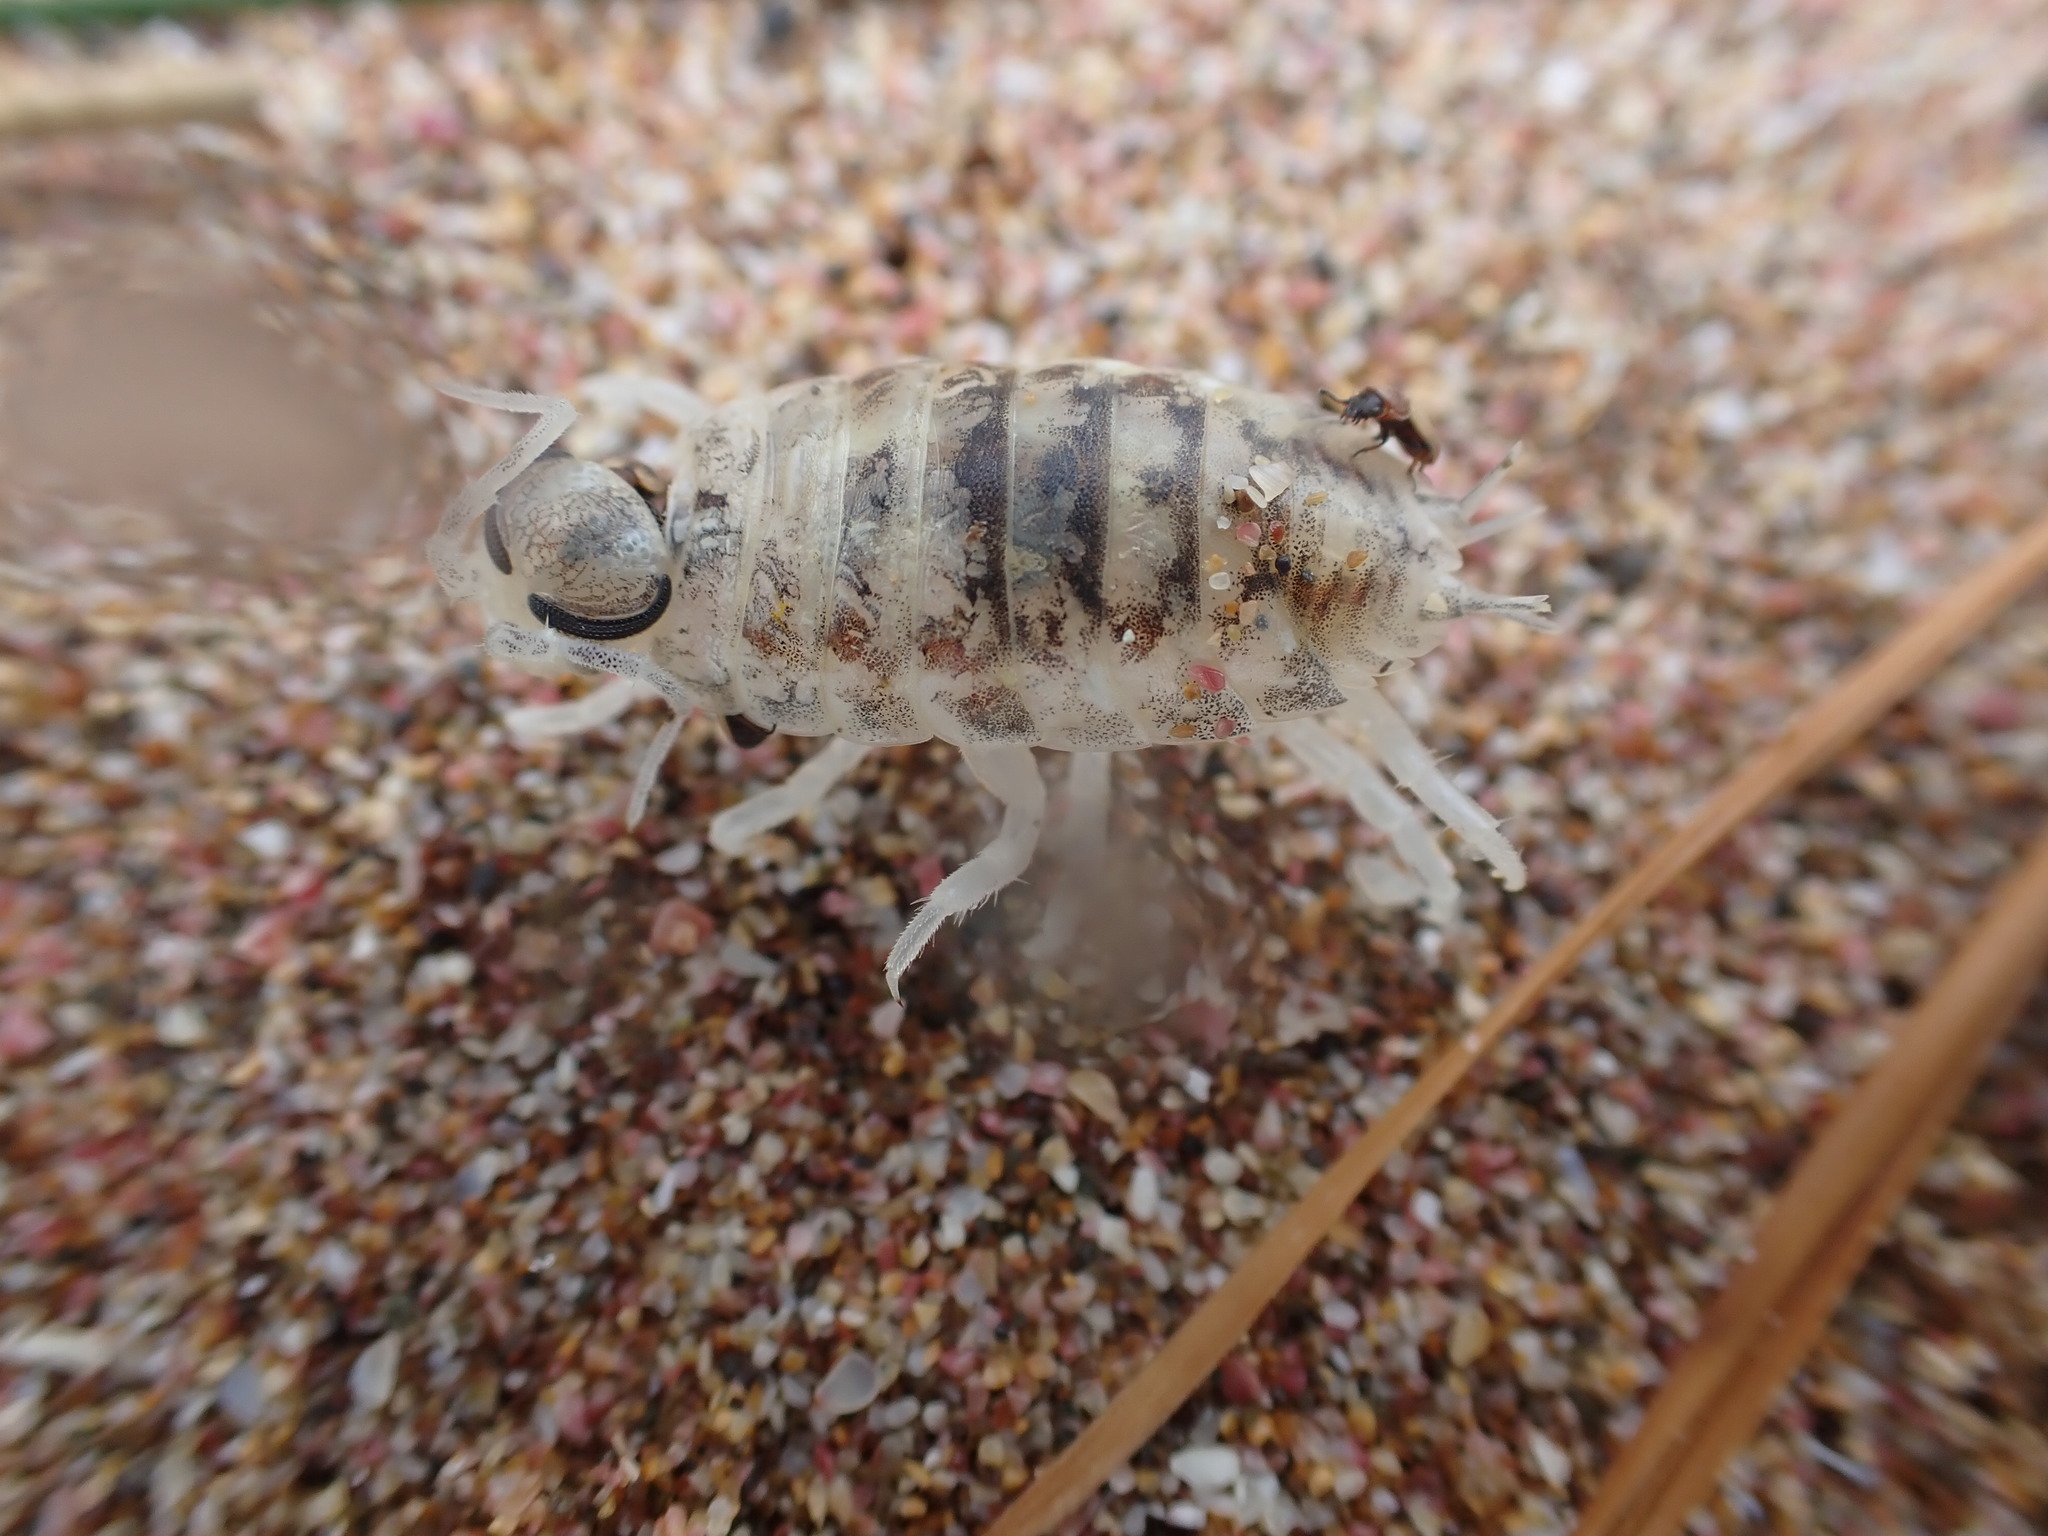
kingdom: Animalia
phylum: Arthropoda
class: Malacostraca
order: Isopoda
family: Scyphacidae
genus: Scyphax
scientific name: Scyphax ornatus
